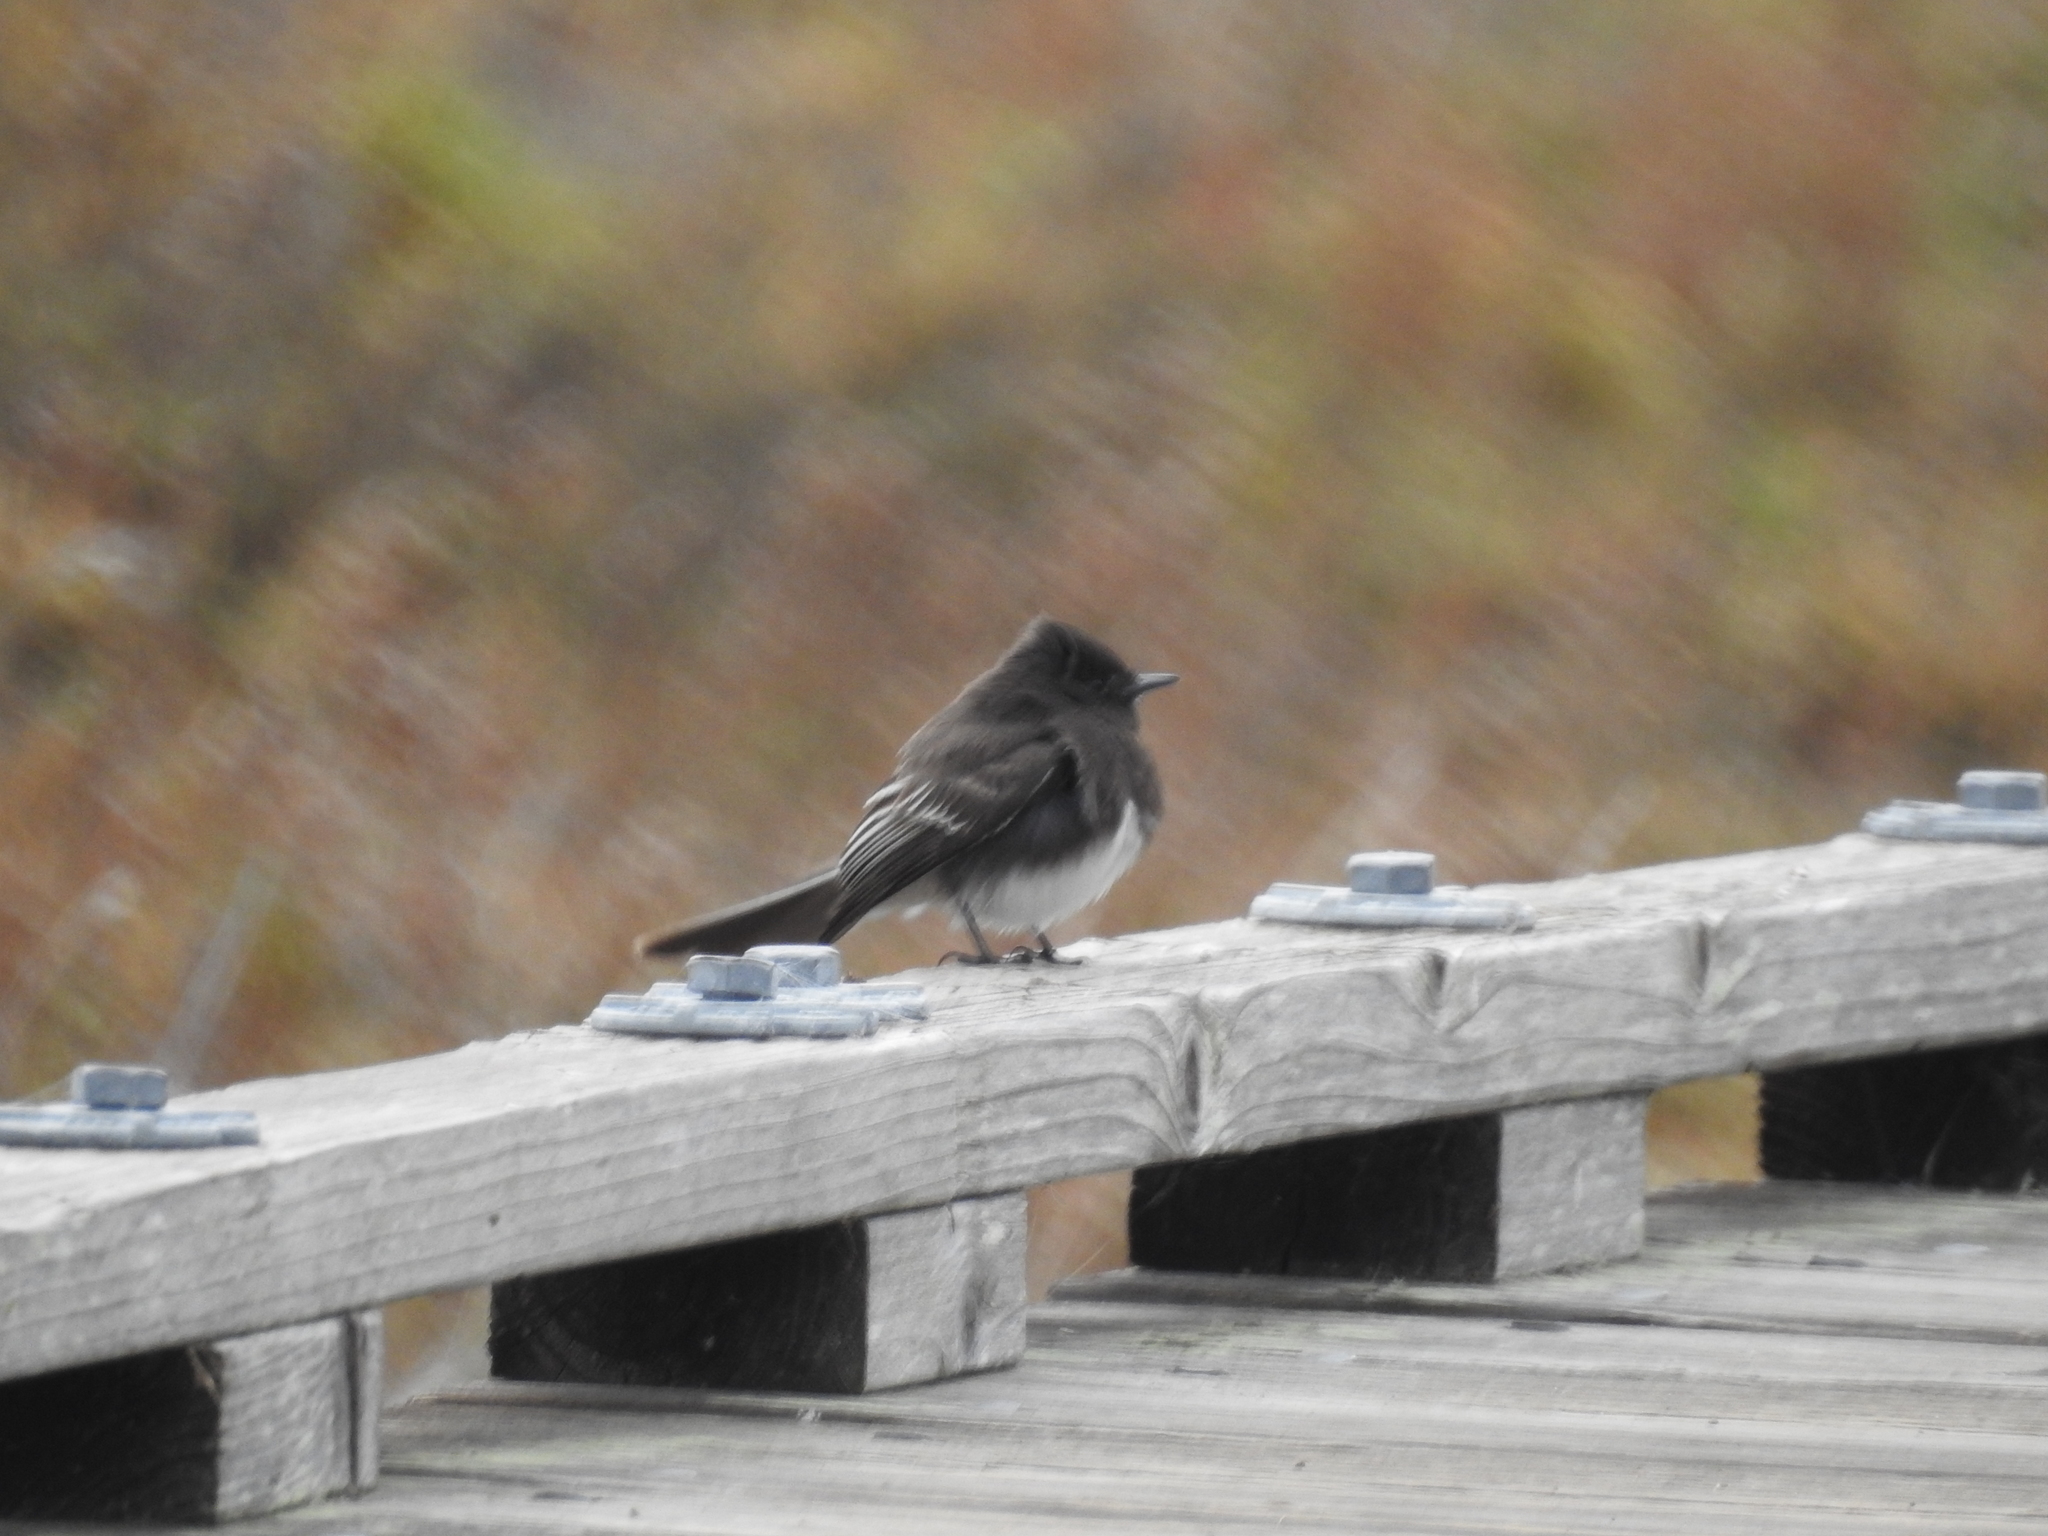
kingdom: Animalia
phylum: Chordata
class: Aves
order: Passeriformes
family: Tyrannidae
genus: Sayornis
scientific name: Sayornis nigricans
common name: Black phoebe
